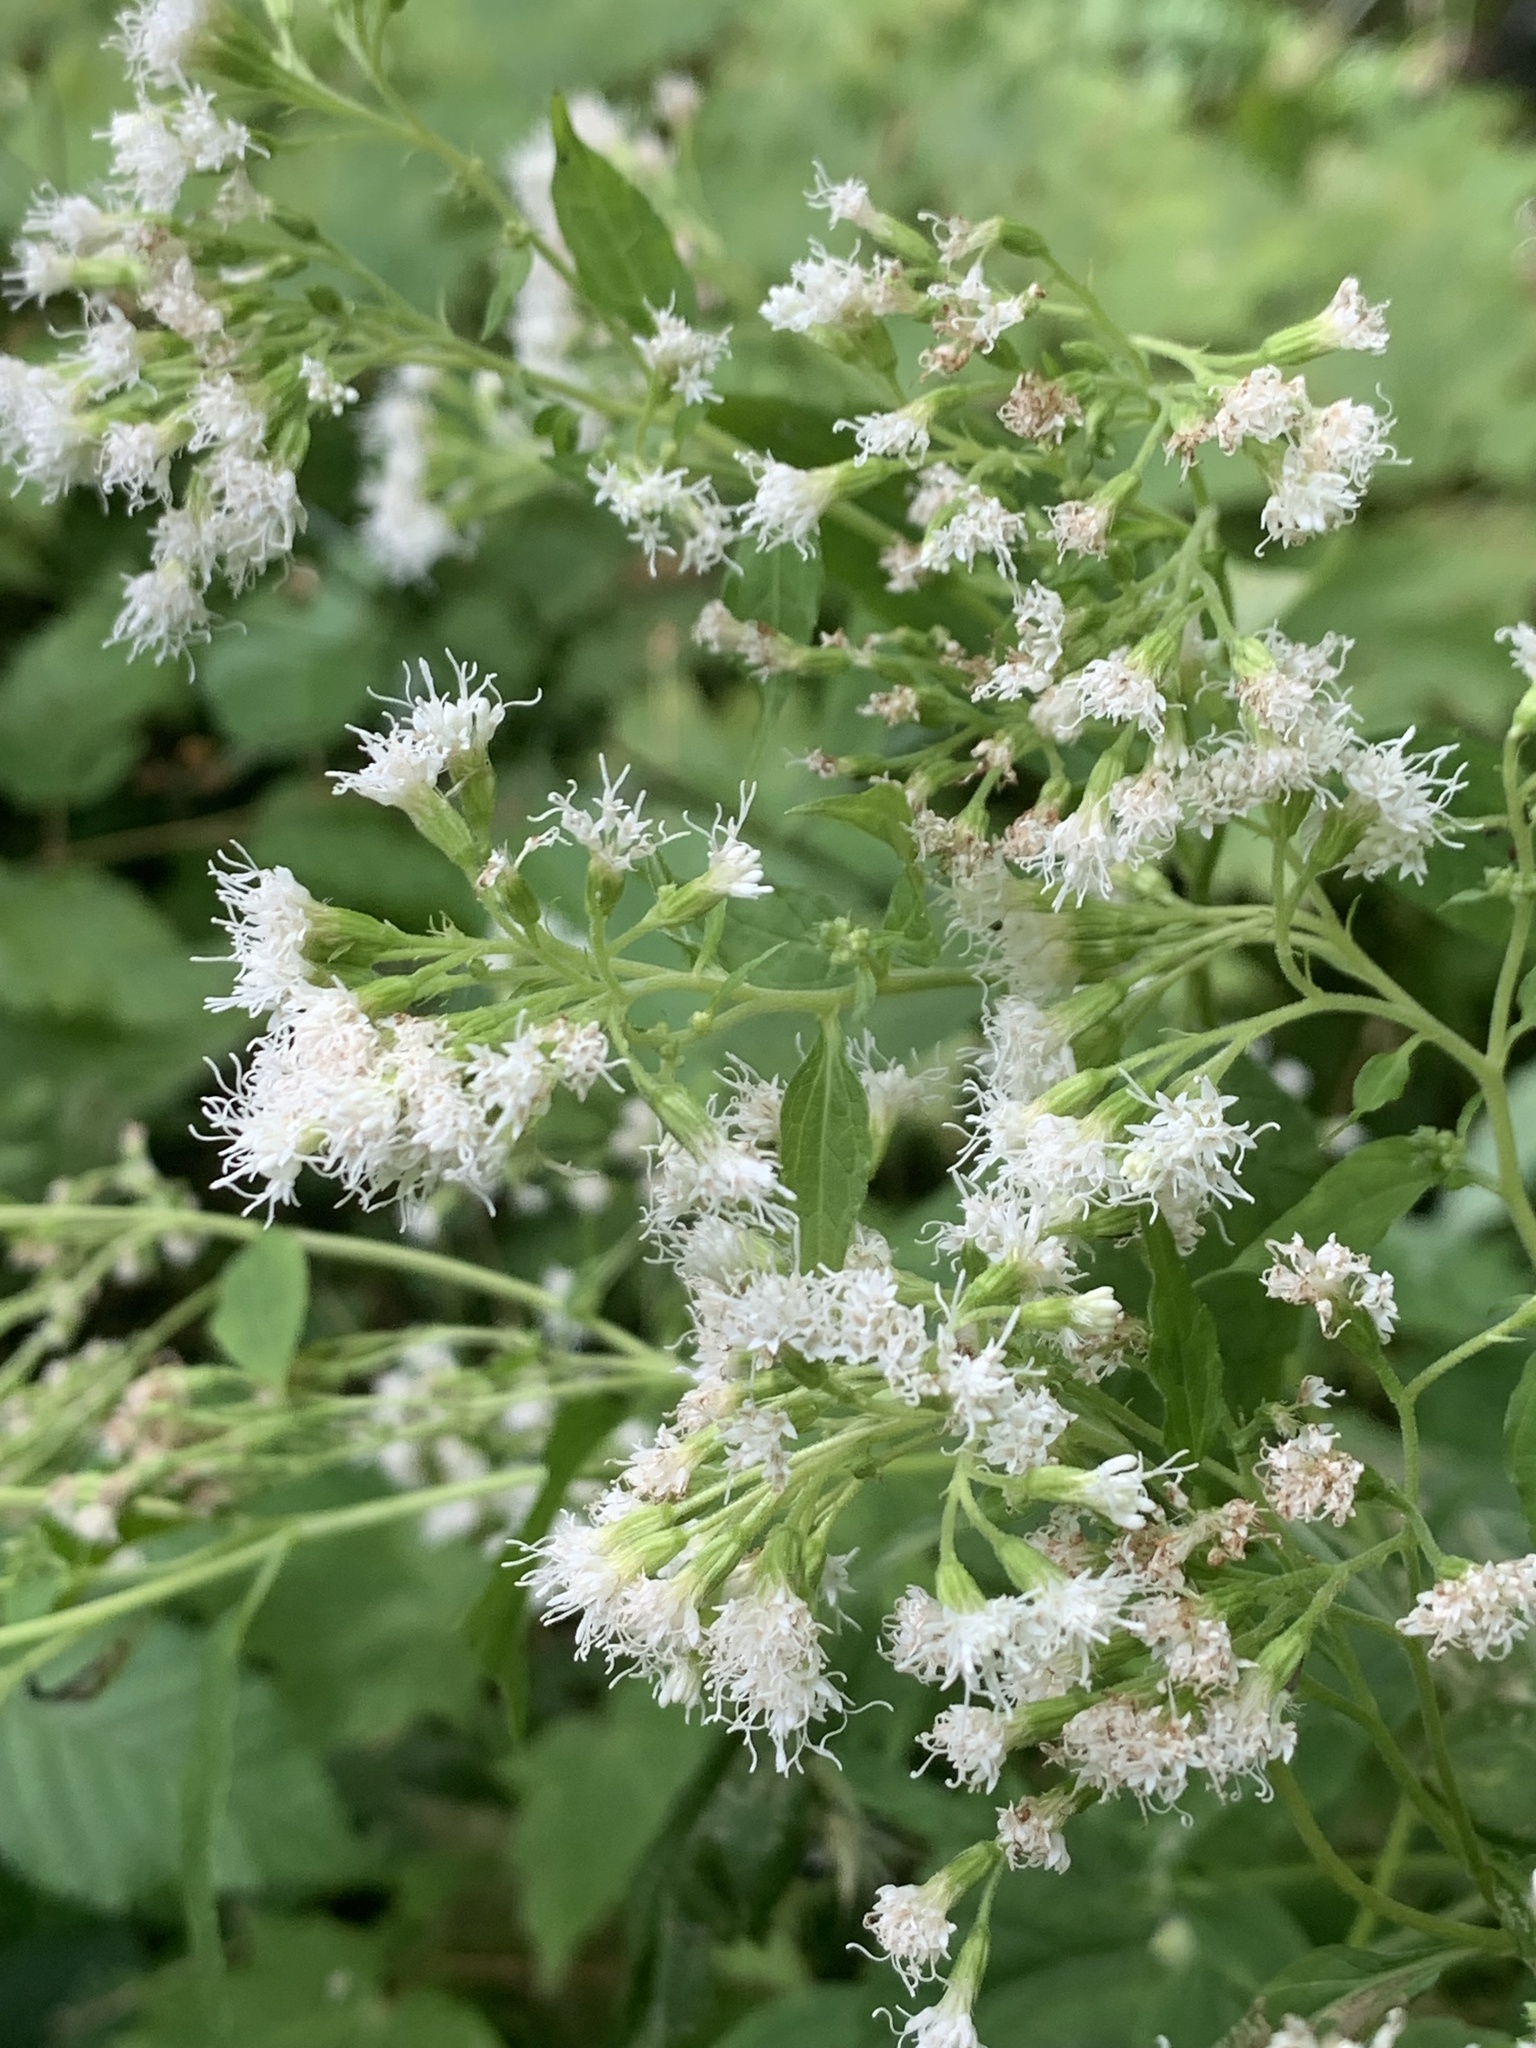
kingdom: Plantae
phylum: Tracheophyta
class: Magnoliopsida
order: Asterales
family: Asteraceae
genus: Ageratina
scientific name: Ageratina altissima
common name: White snakeroot
